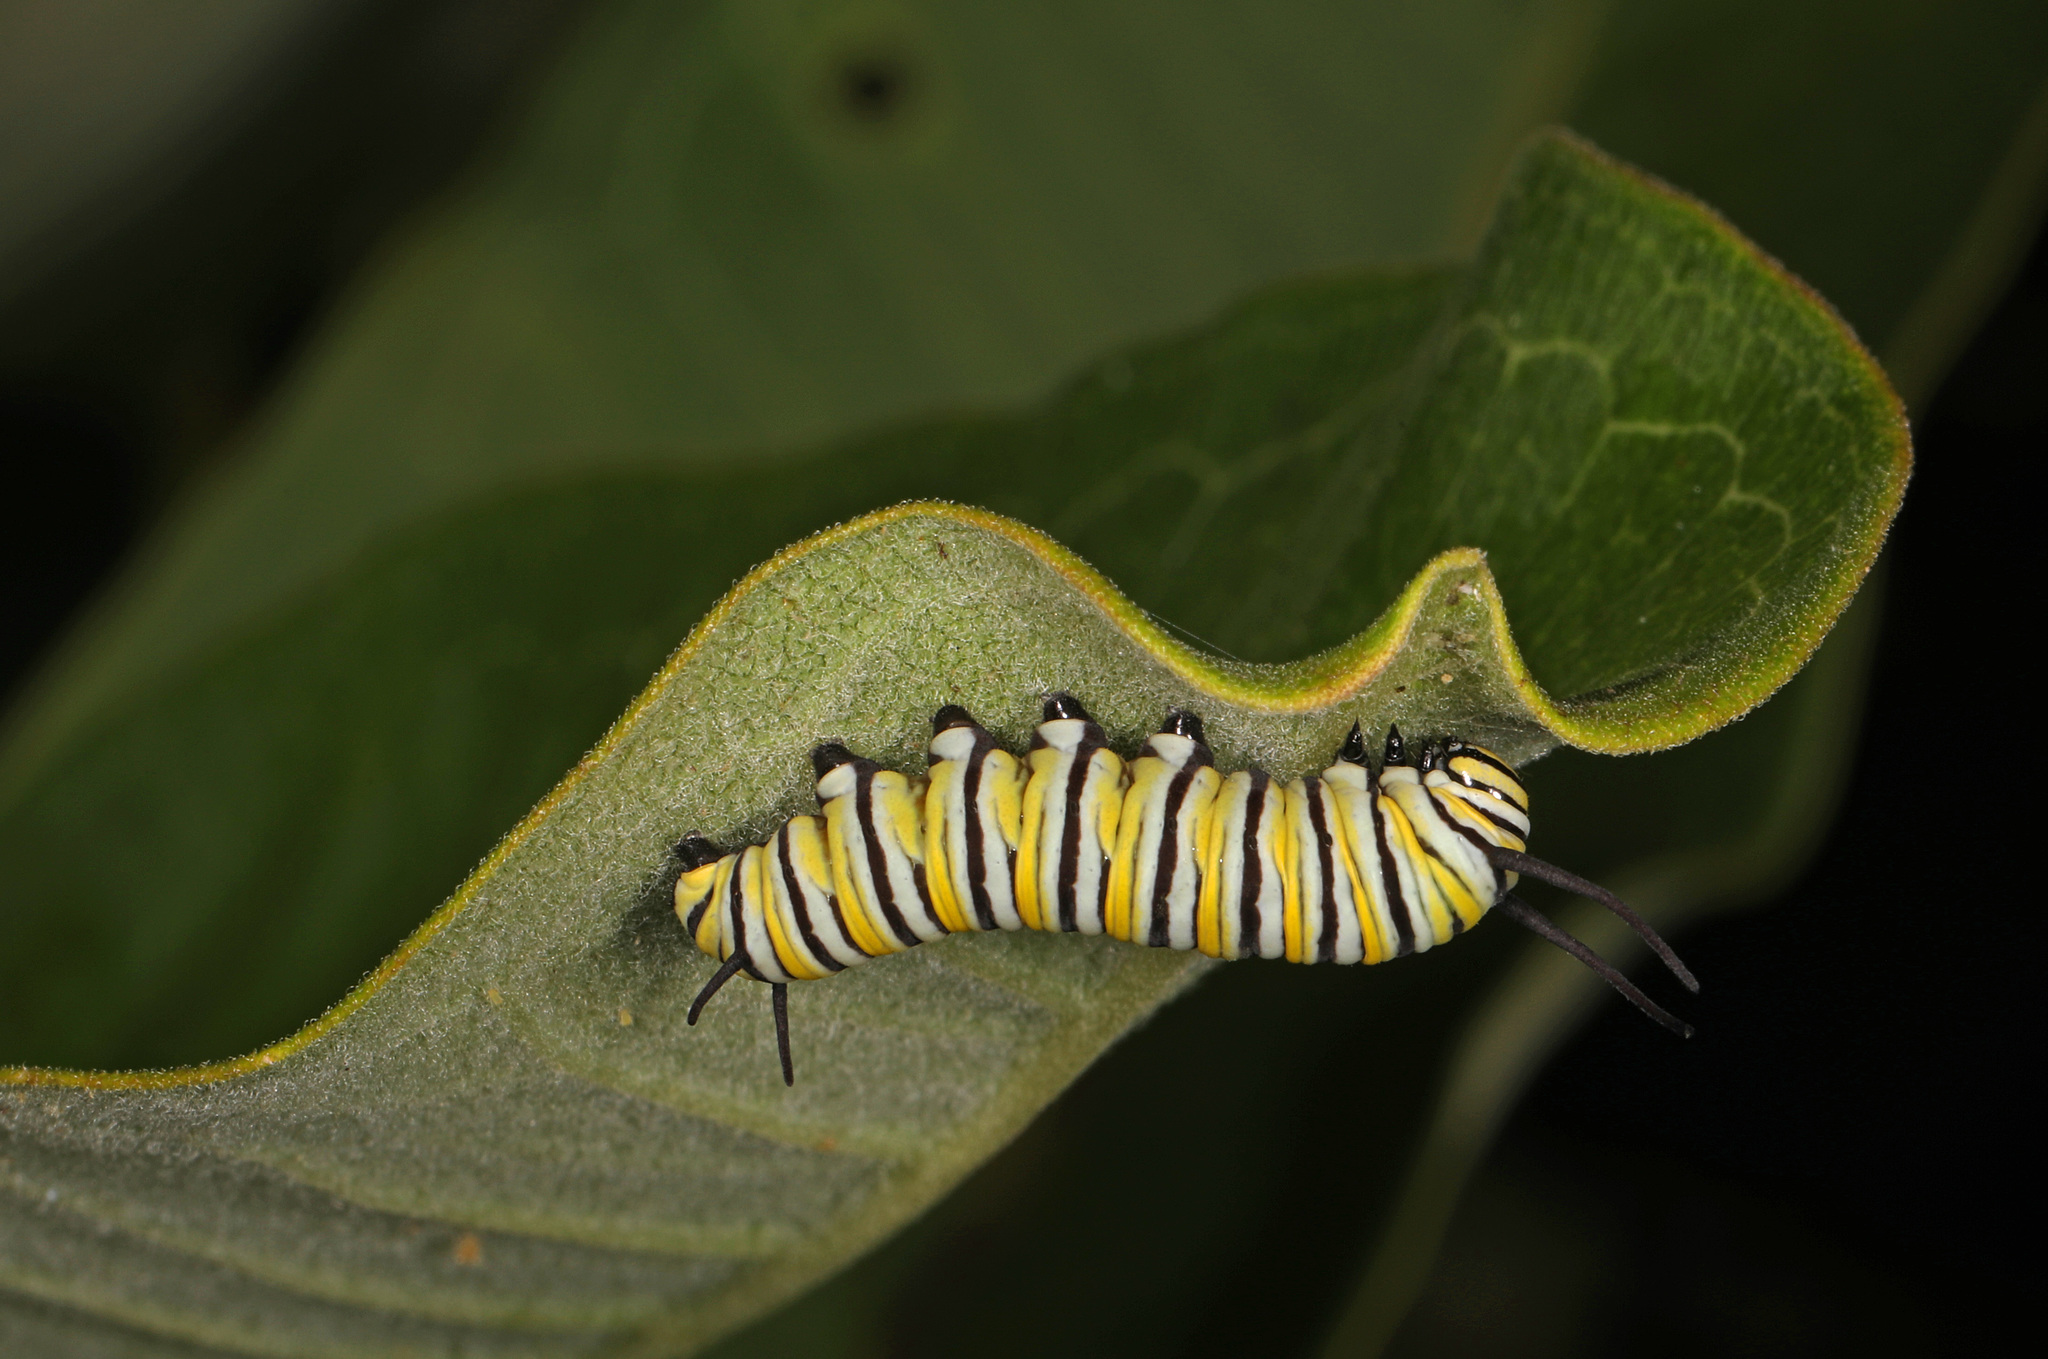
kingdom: Animalia
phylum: Arthropoda
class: Insecta
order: Lepidoptera
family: Nymphalidae
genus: Danaus
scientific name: Danaus plexippus
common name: Monarch
